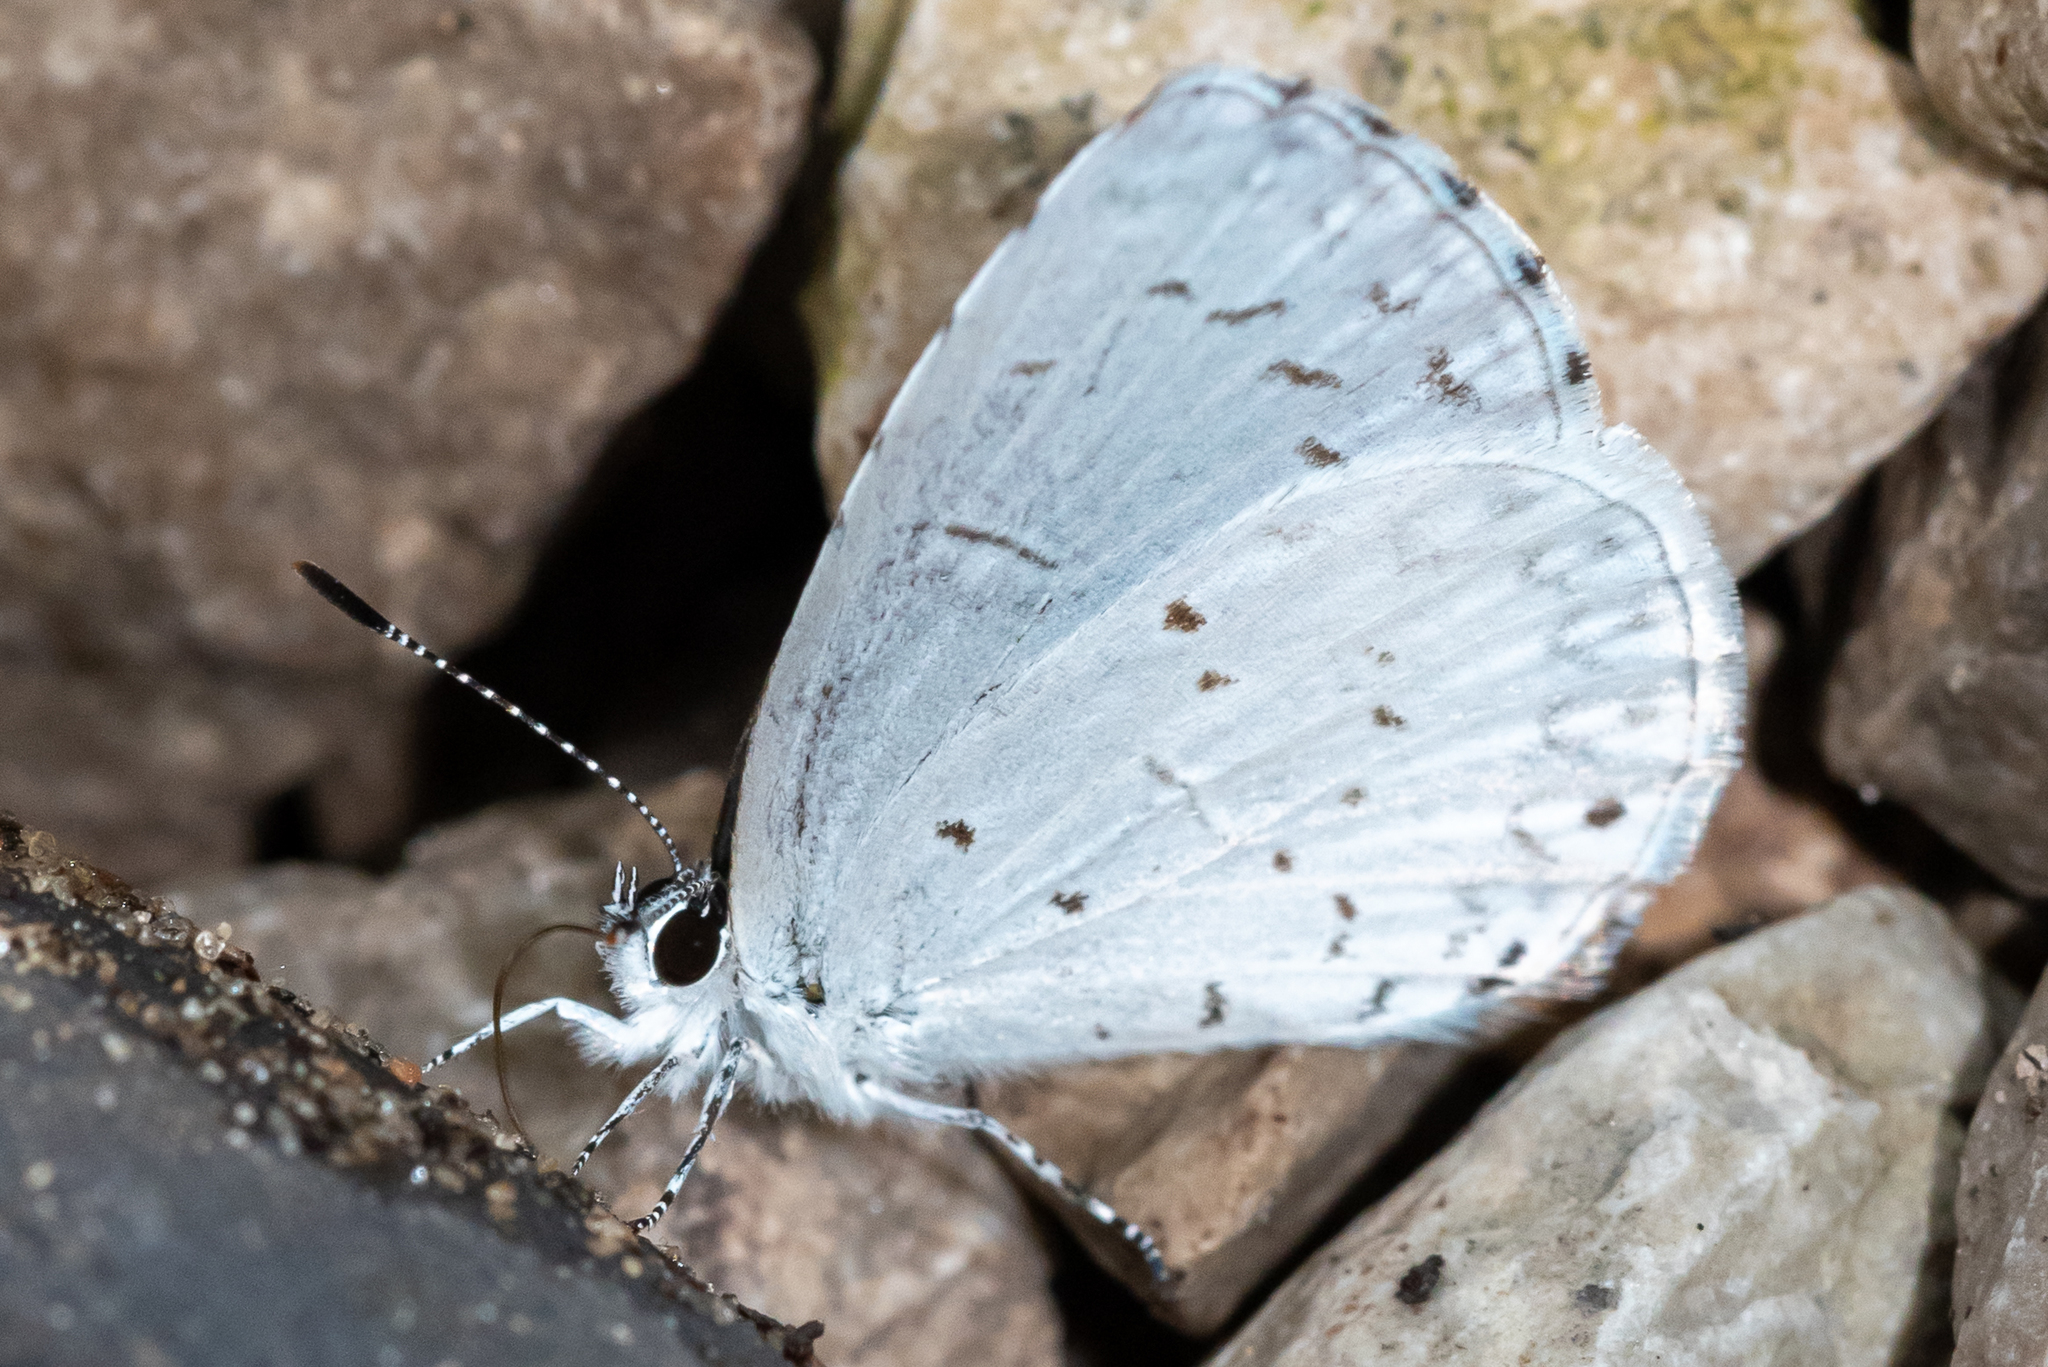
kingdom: Animalia
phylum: Arthropoda
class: Insecta
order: Lepidoptera
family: Lycaenidae
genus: Cyaniris
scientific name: Cyaniris neglecta
